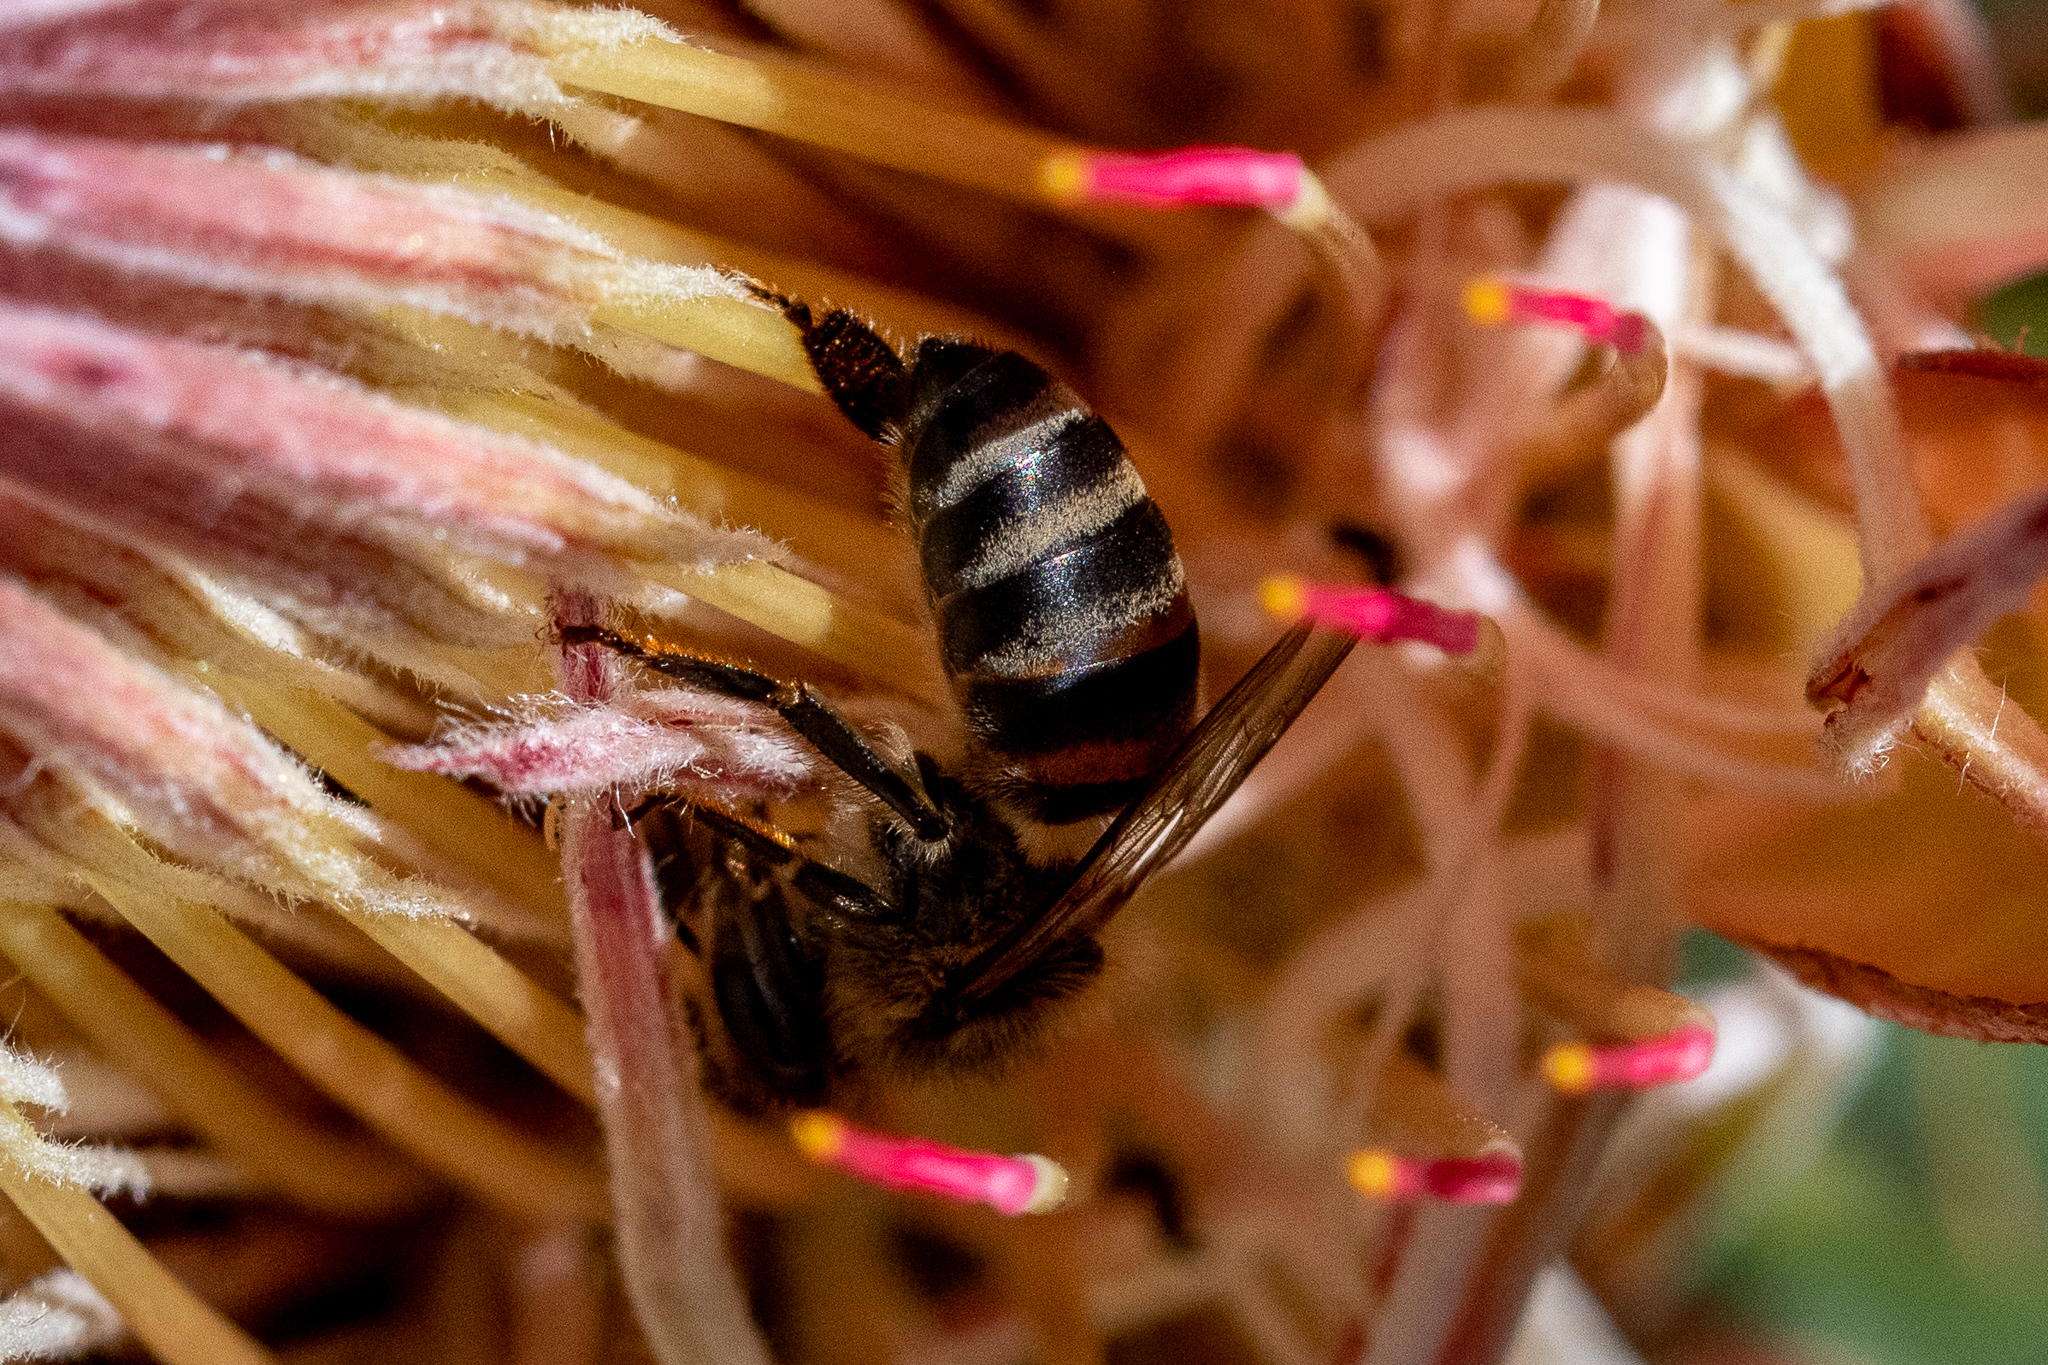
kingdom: Animalia
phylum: Arthropoda
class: Insecta
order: Hymenoptera
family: Apidae
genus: Apis
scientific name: Apis mellifera
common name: Honey bee
